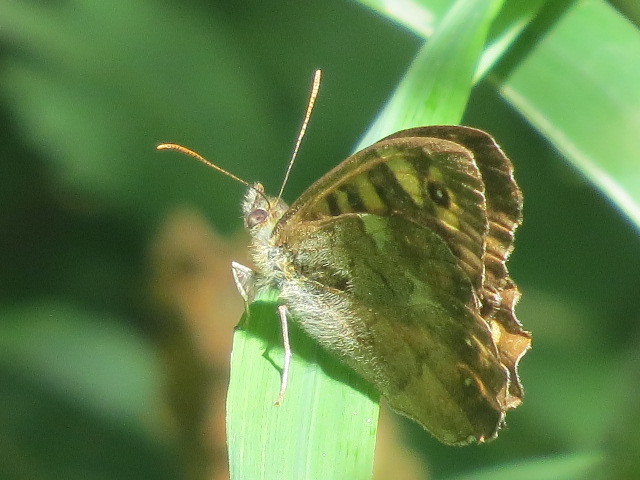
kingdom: Animalia
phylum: Arthropoda
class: Insecta
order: Lepidoptera
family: Nymphalidae
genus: Pararge
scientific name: Pararge aegeria
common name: Speckled wood
